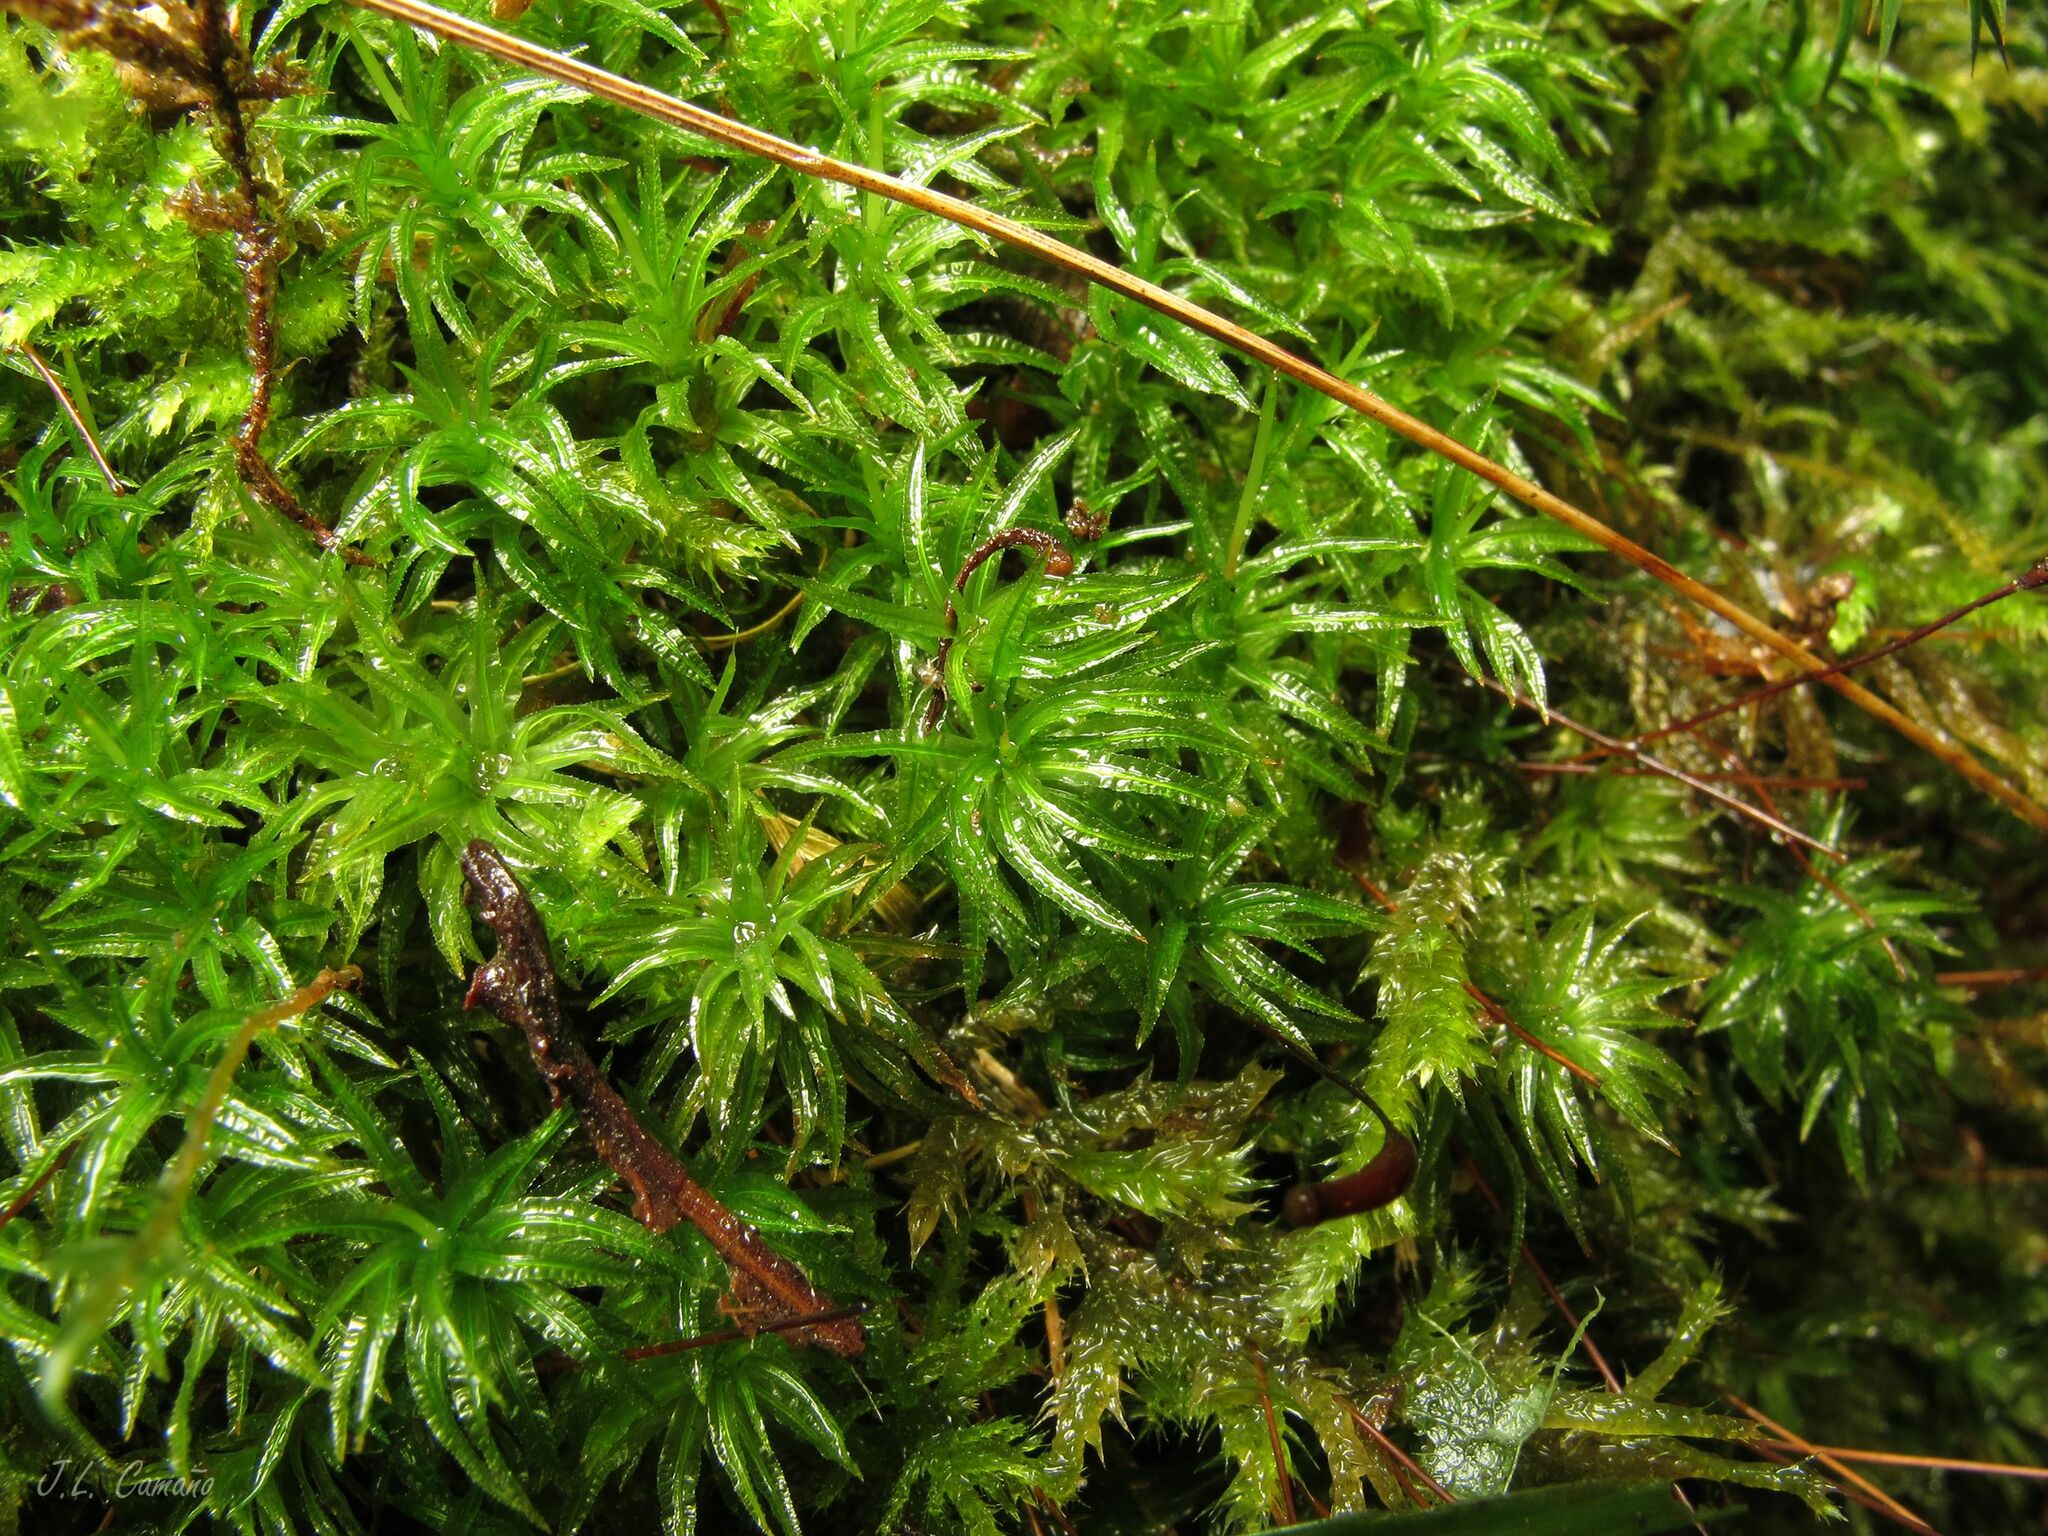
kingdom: Plantae
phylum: Bryophyta
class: Polytrichopsida
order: Polytrichales
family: Polytrichaceae
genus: Atrichum
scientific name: Atrichum undulatum
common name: Common smoothcap
